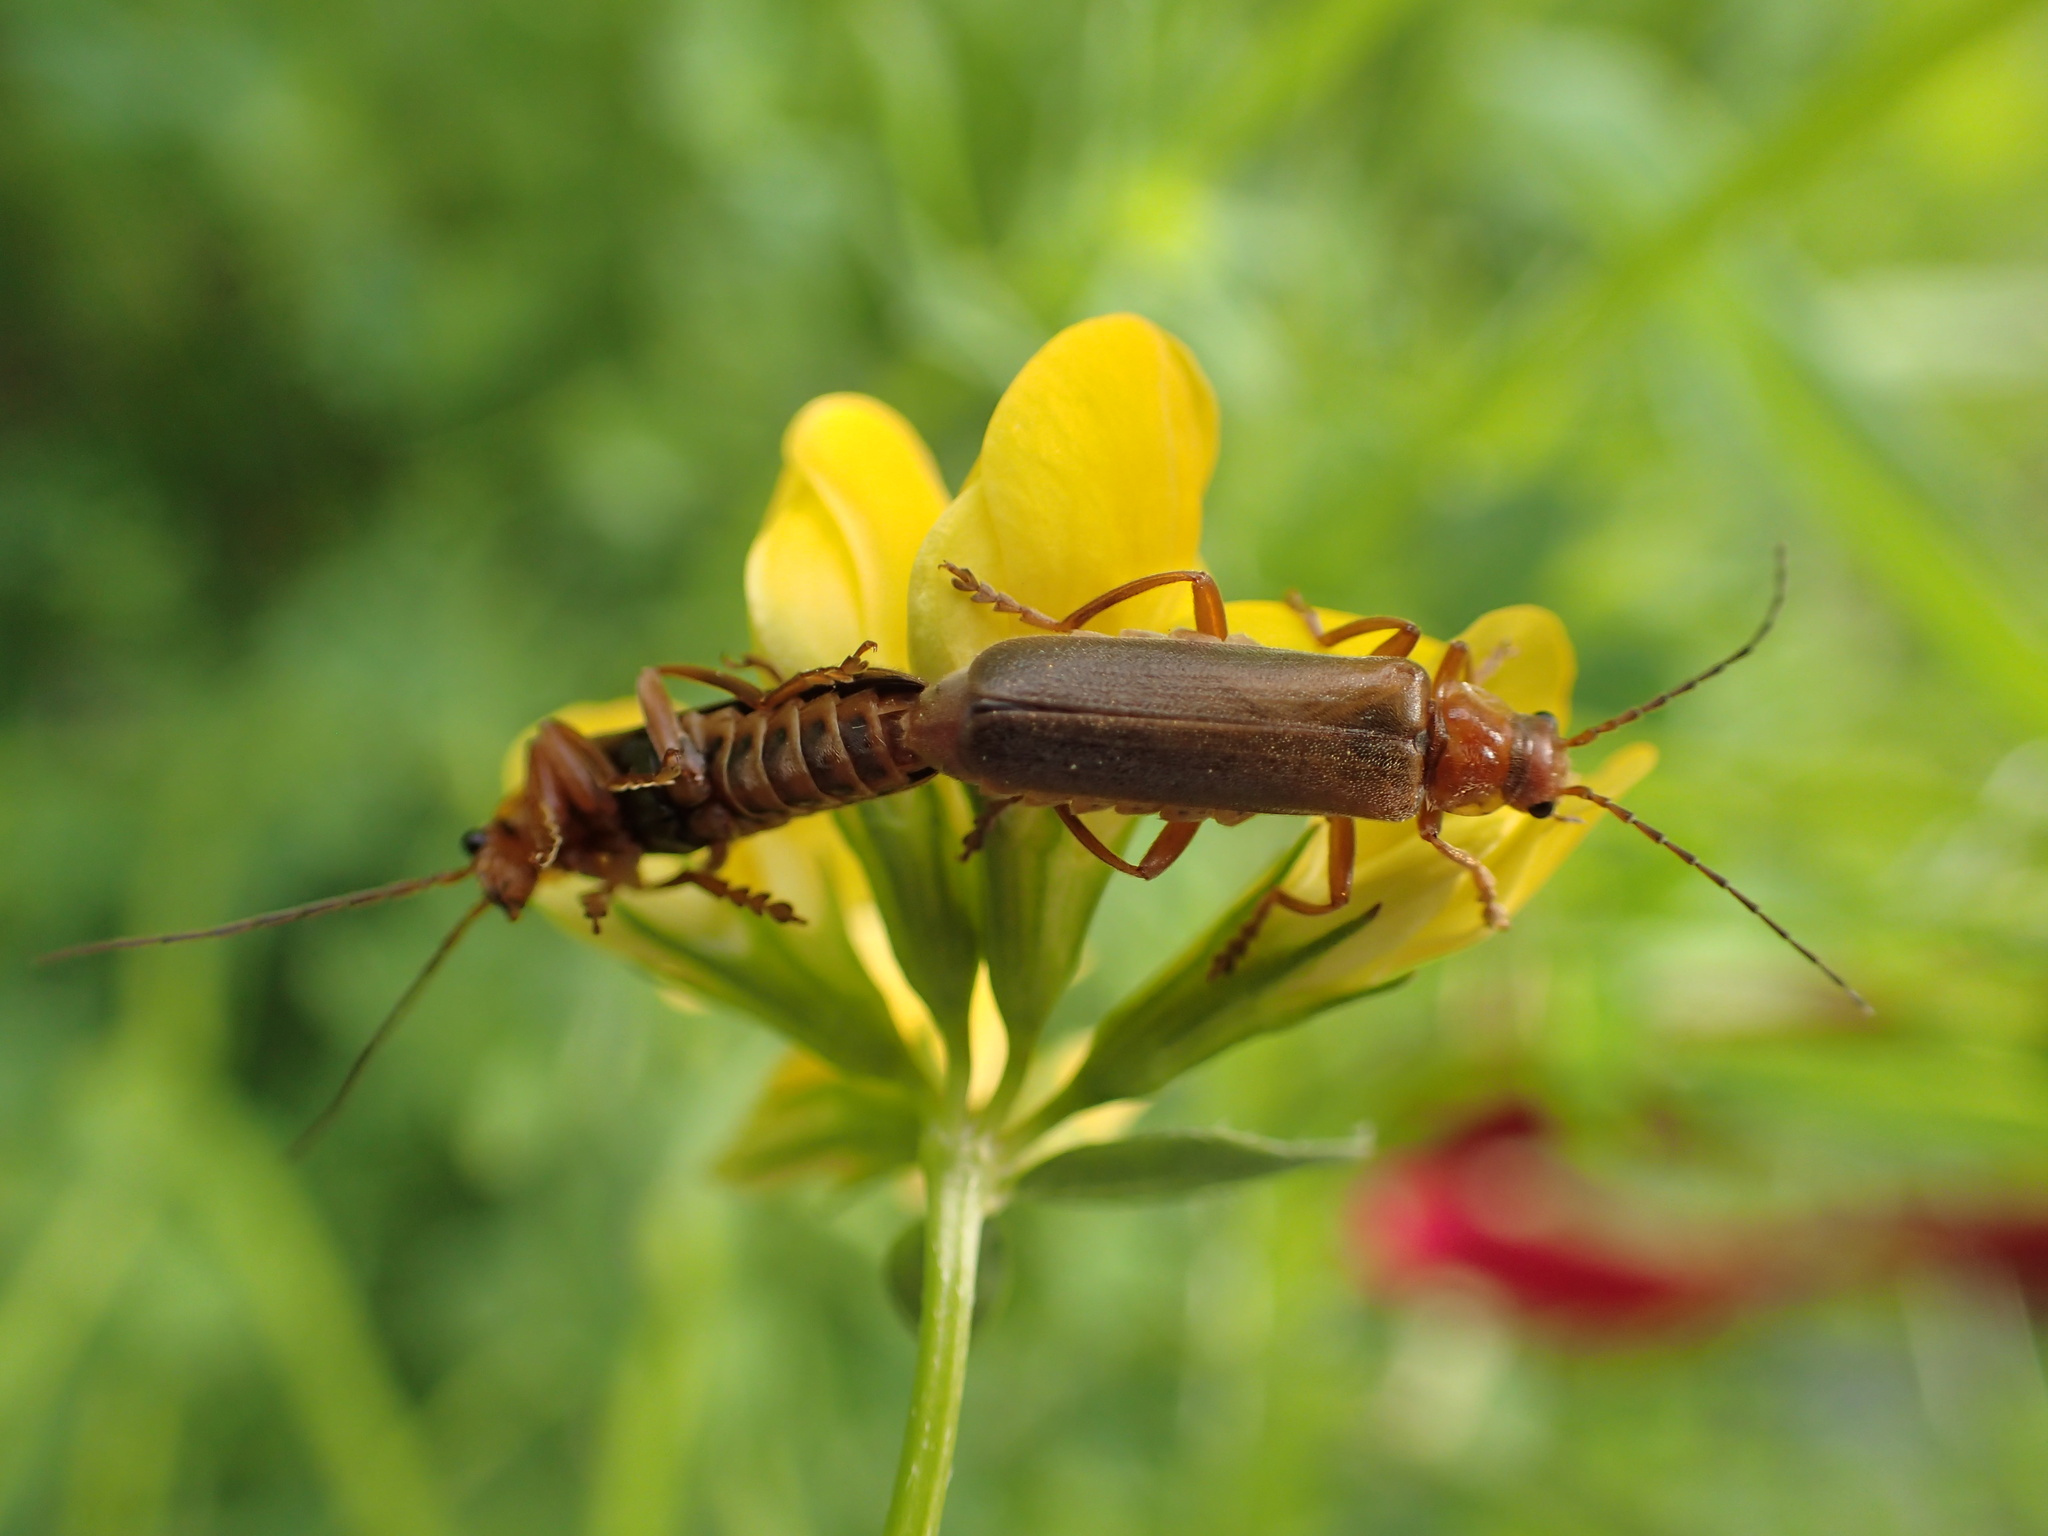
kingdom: Animalia
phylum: Arthropoda
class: Insecta
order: Coleoptera
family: Cantharidae
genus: Cantharis
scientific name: Cantharis rufa
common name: Red-spotted soldier beetle
